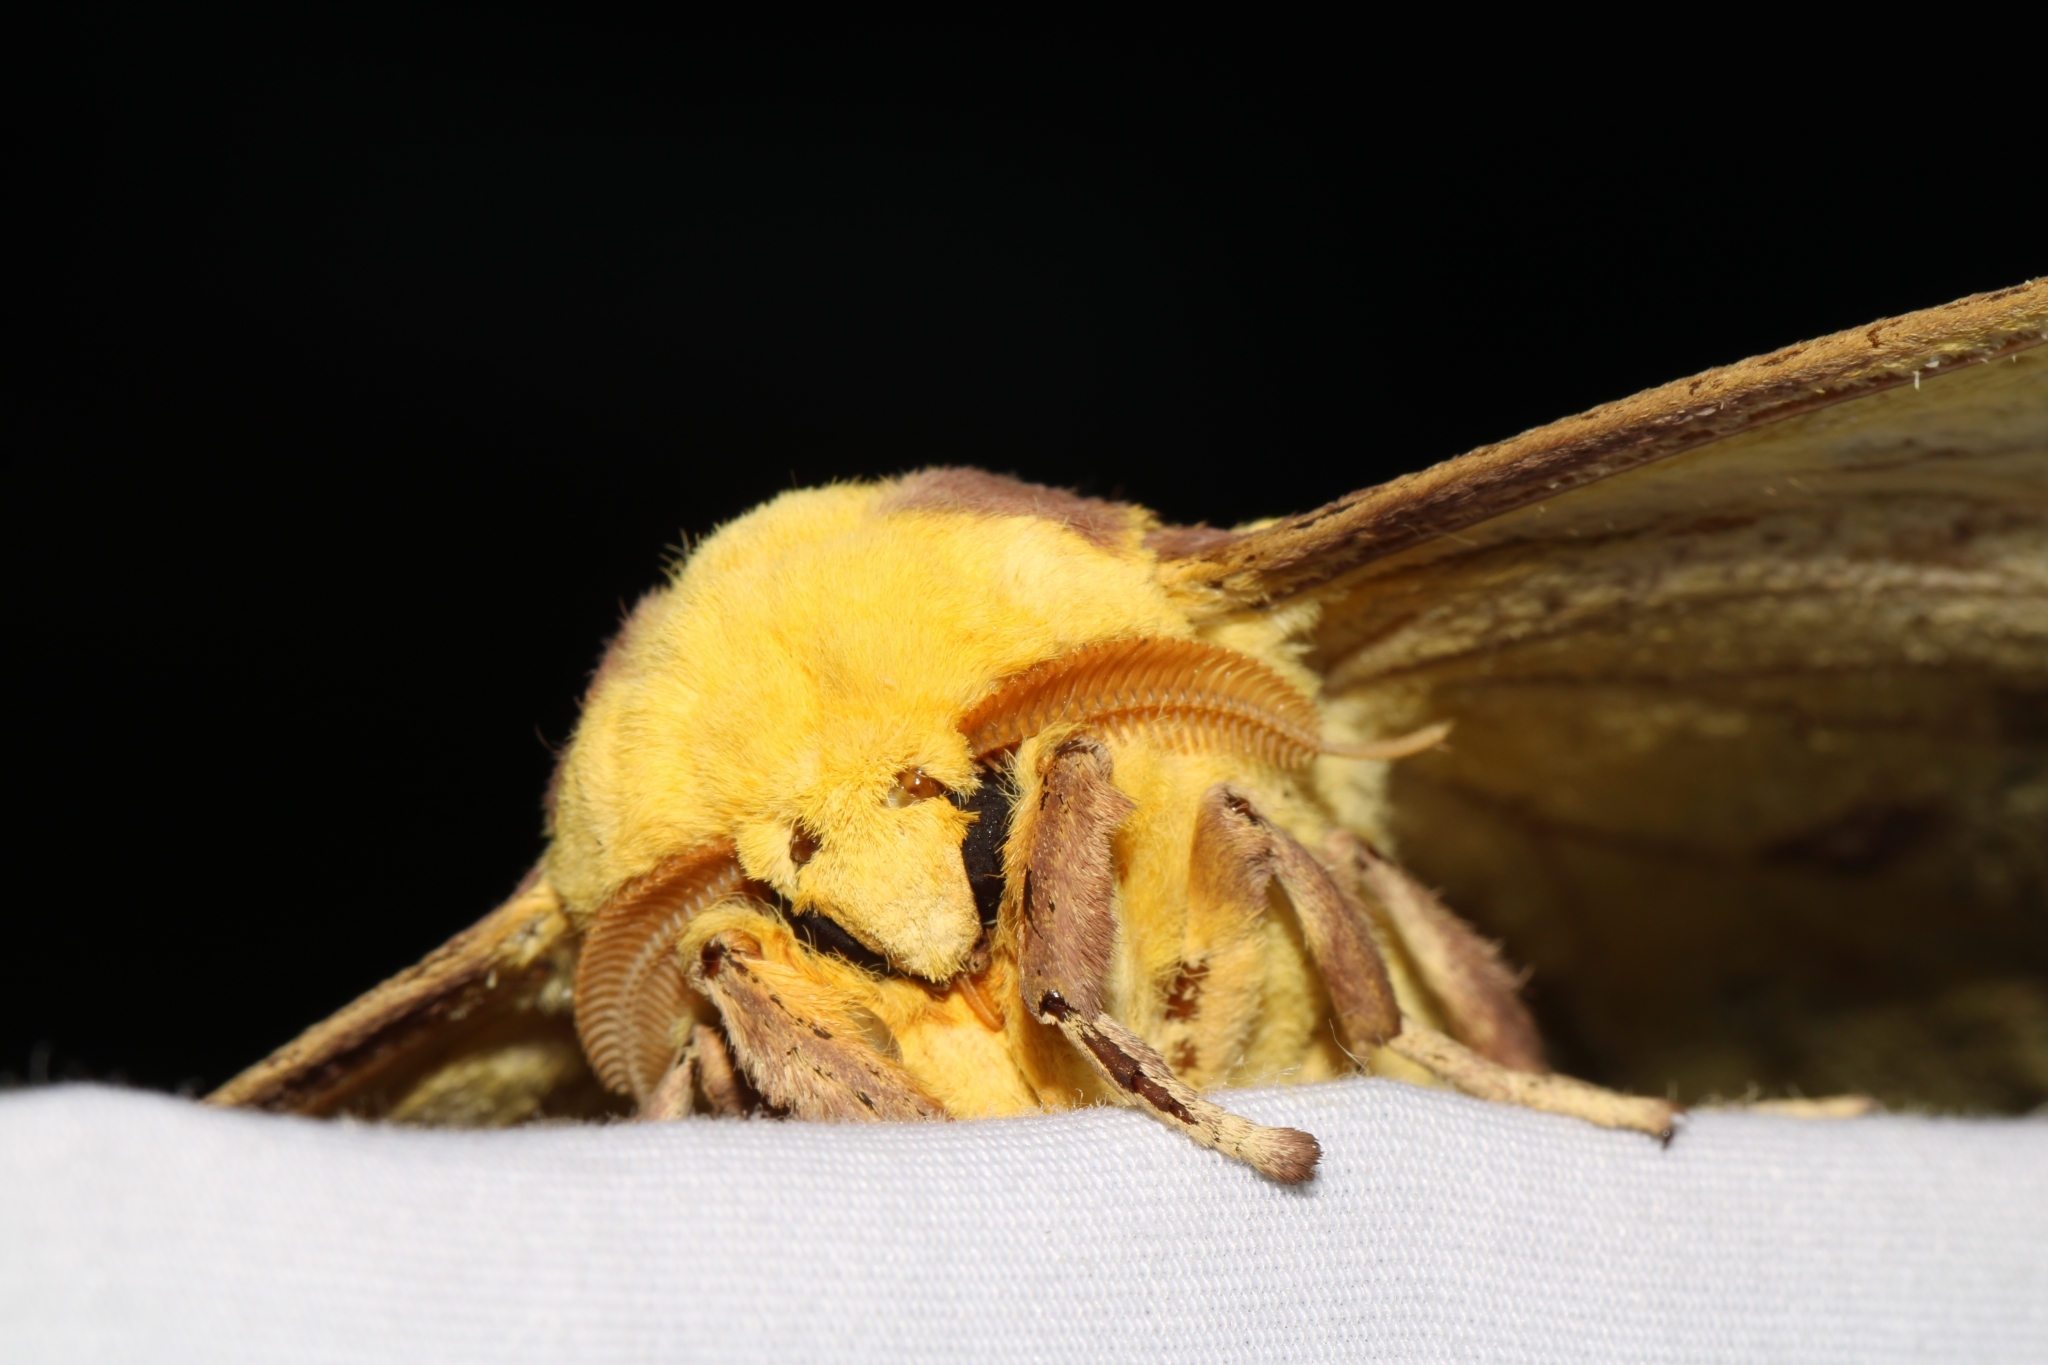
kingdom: Animalia
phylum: Arthropoda
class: Insecta
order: Lepidoptera
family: Saturniidae
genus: Eacles
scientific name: Eacles imperialis
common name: Imperial moth
